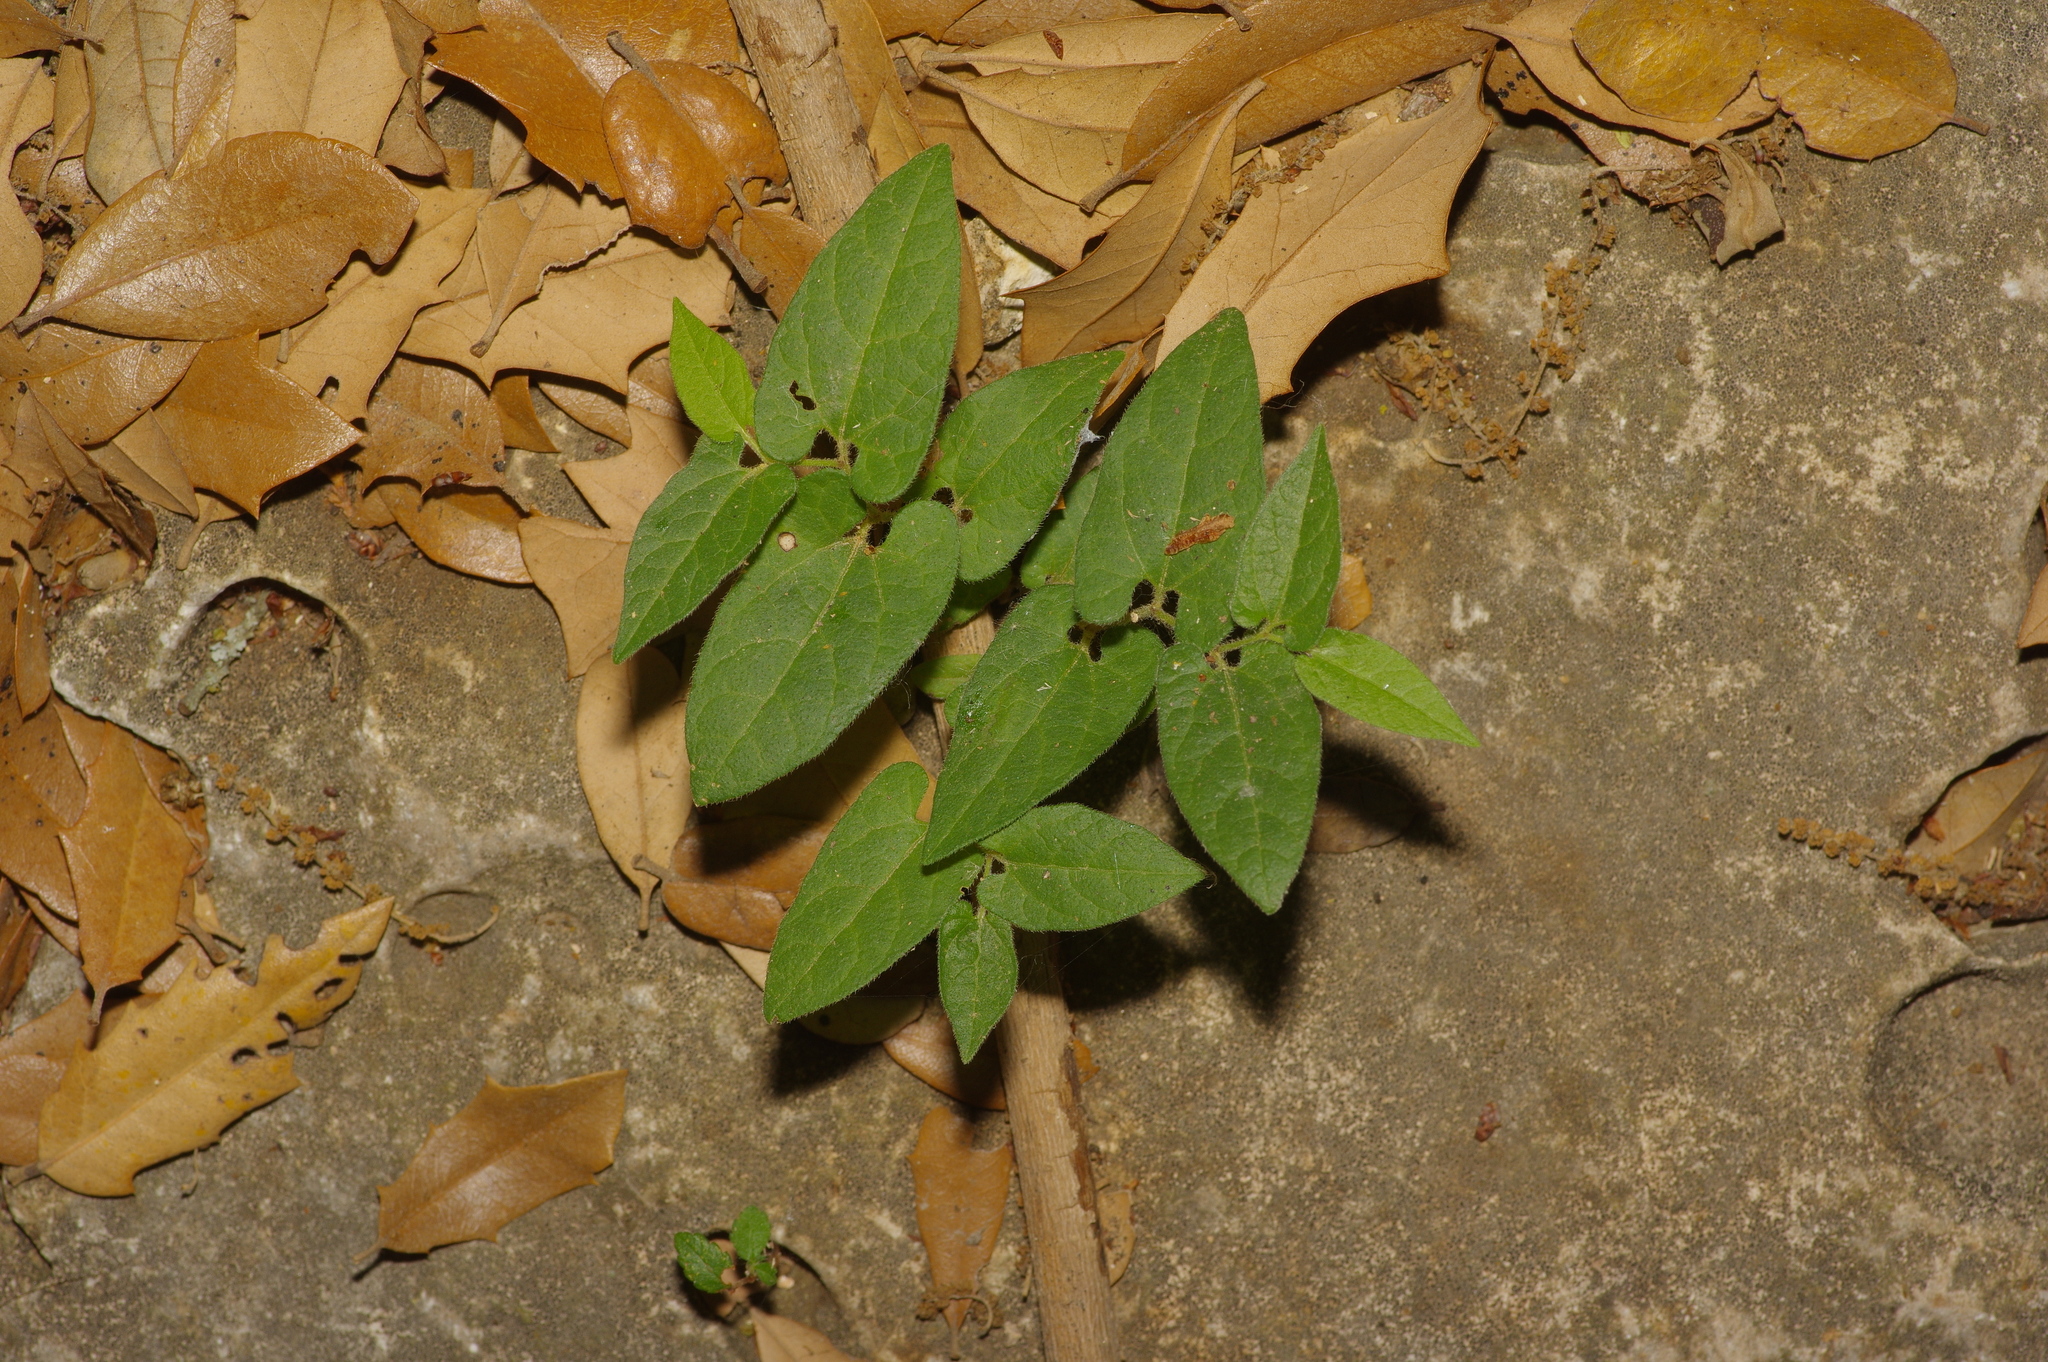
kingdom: Plantae
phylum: Tracheophyta
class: Magnoliopsida
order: Piperales
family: Aristolochiaceae
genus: Endodeca
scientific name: Endodeca serpentaria
